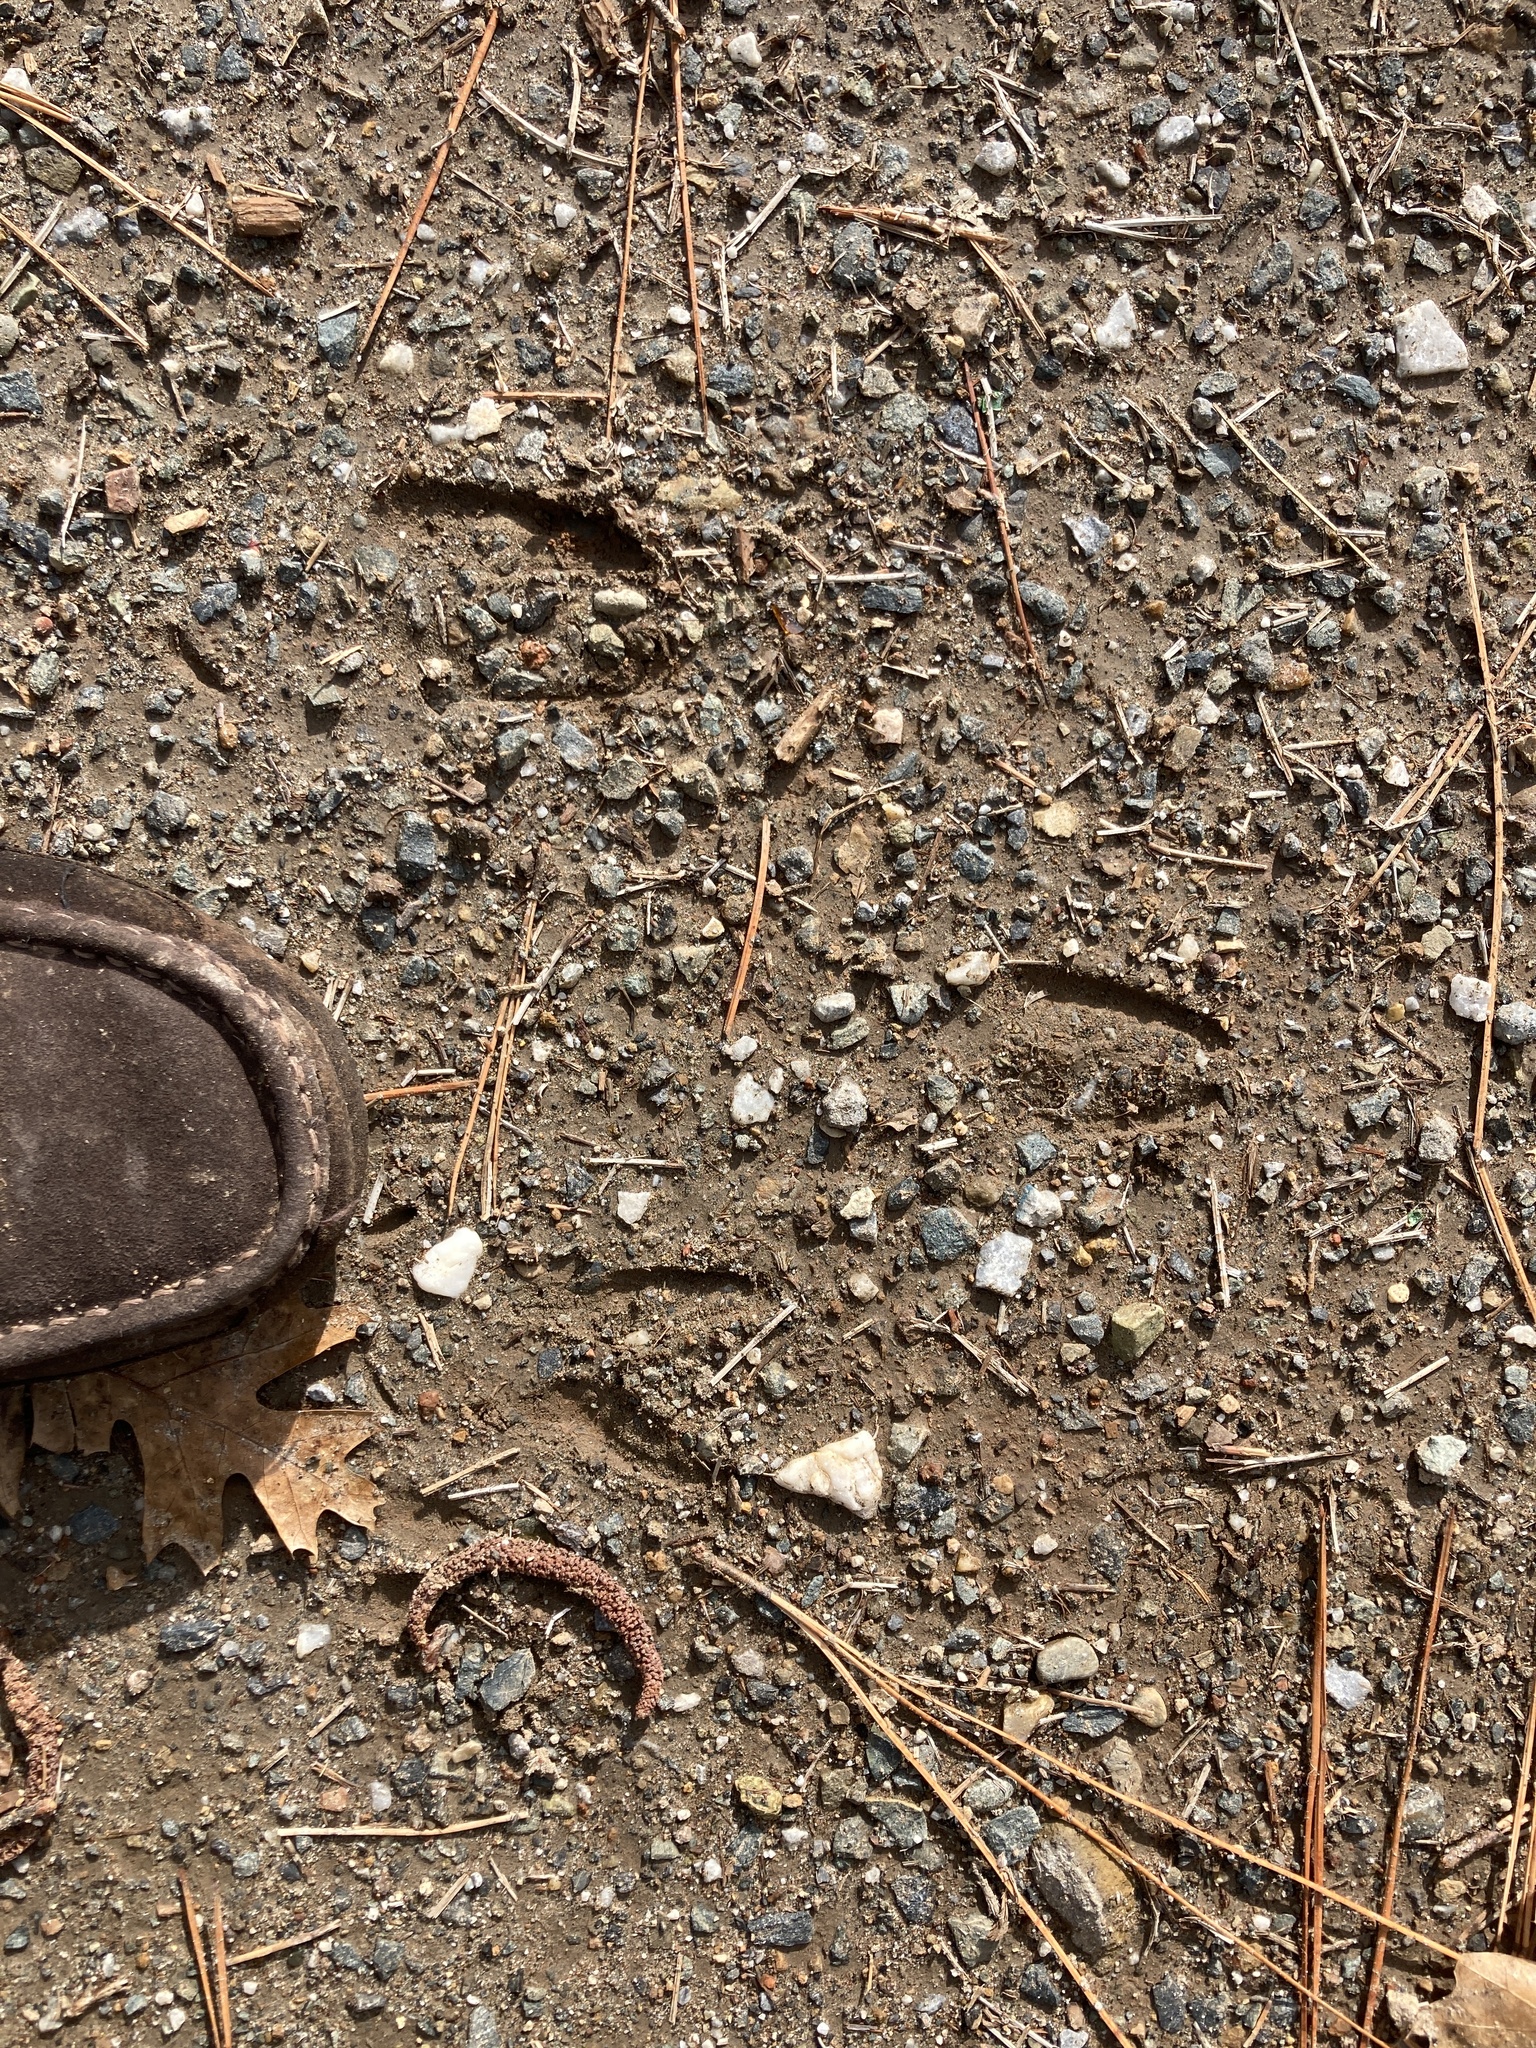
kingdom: Animalia
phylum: Chordata
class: Mammalia
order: Artiodactyla
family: Cervidae
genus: Odocoileus
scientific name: Odocoileus hemionus
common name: Mule deer
